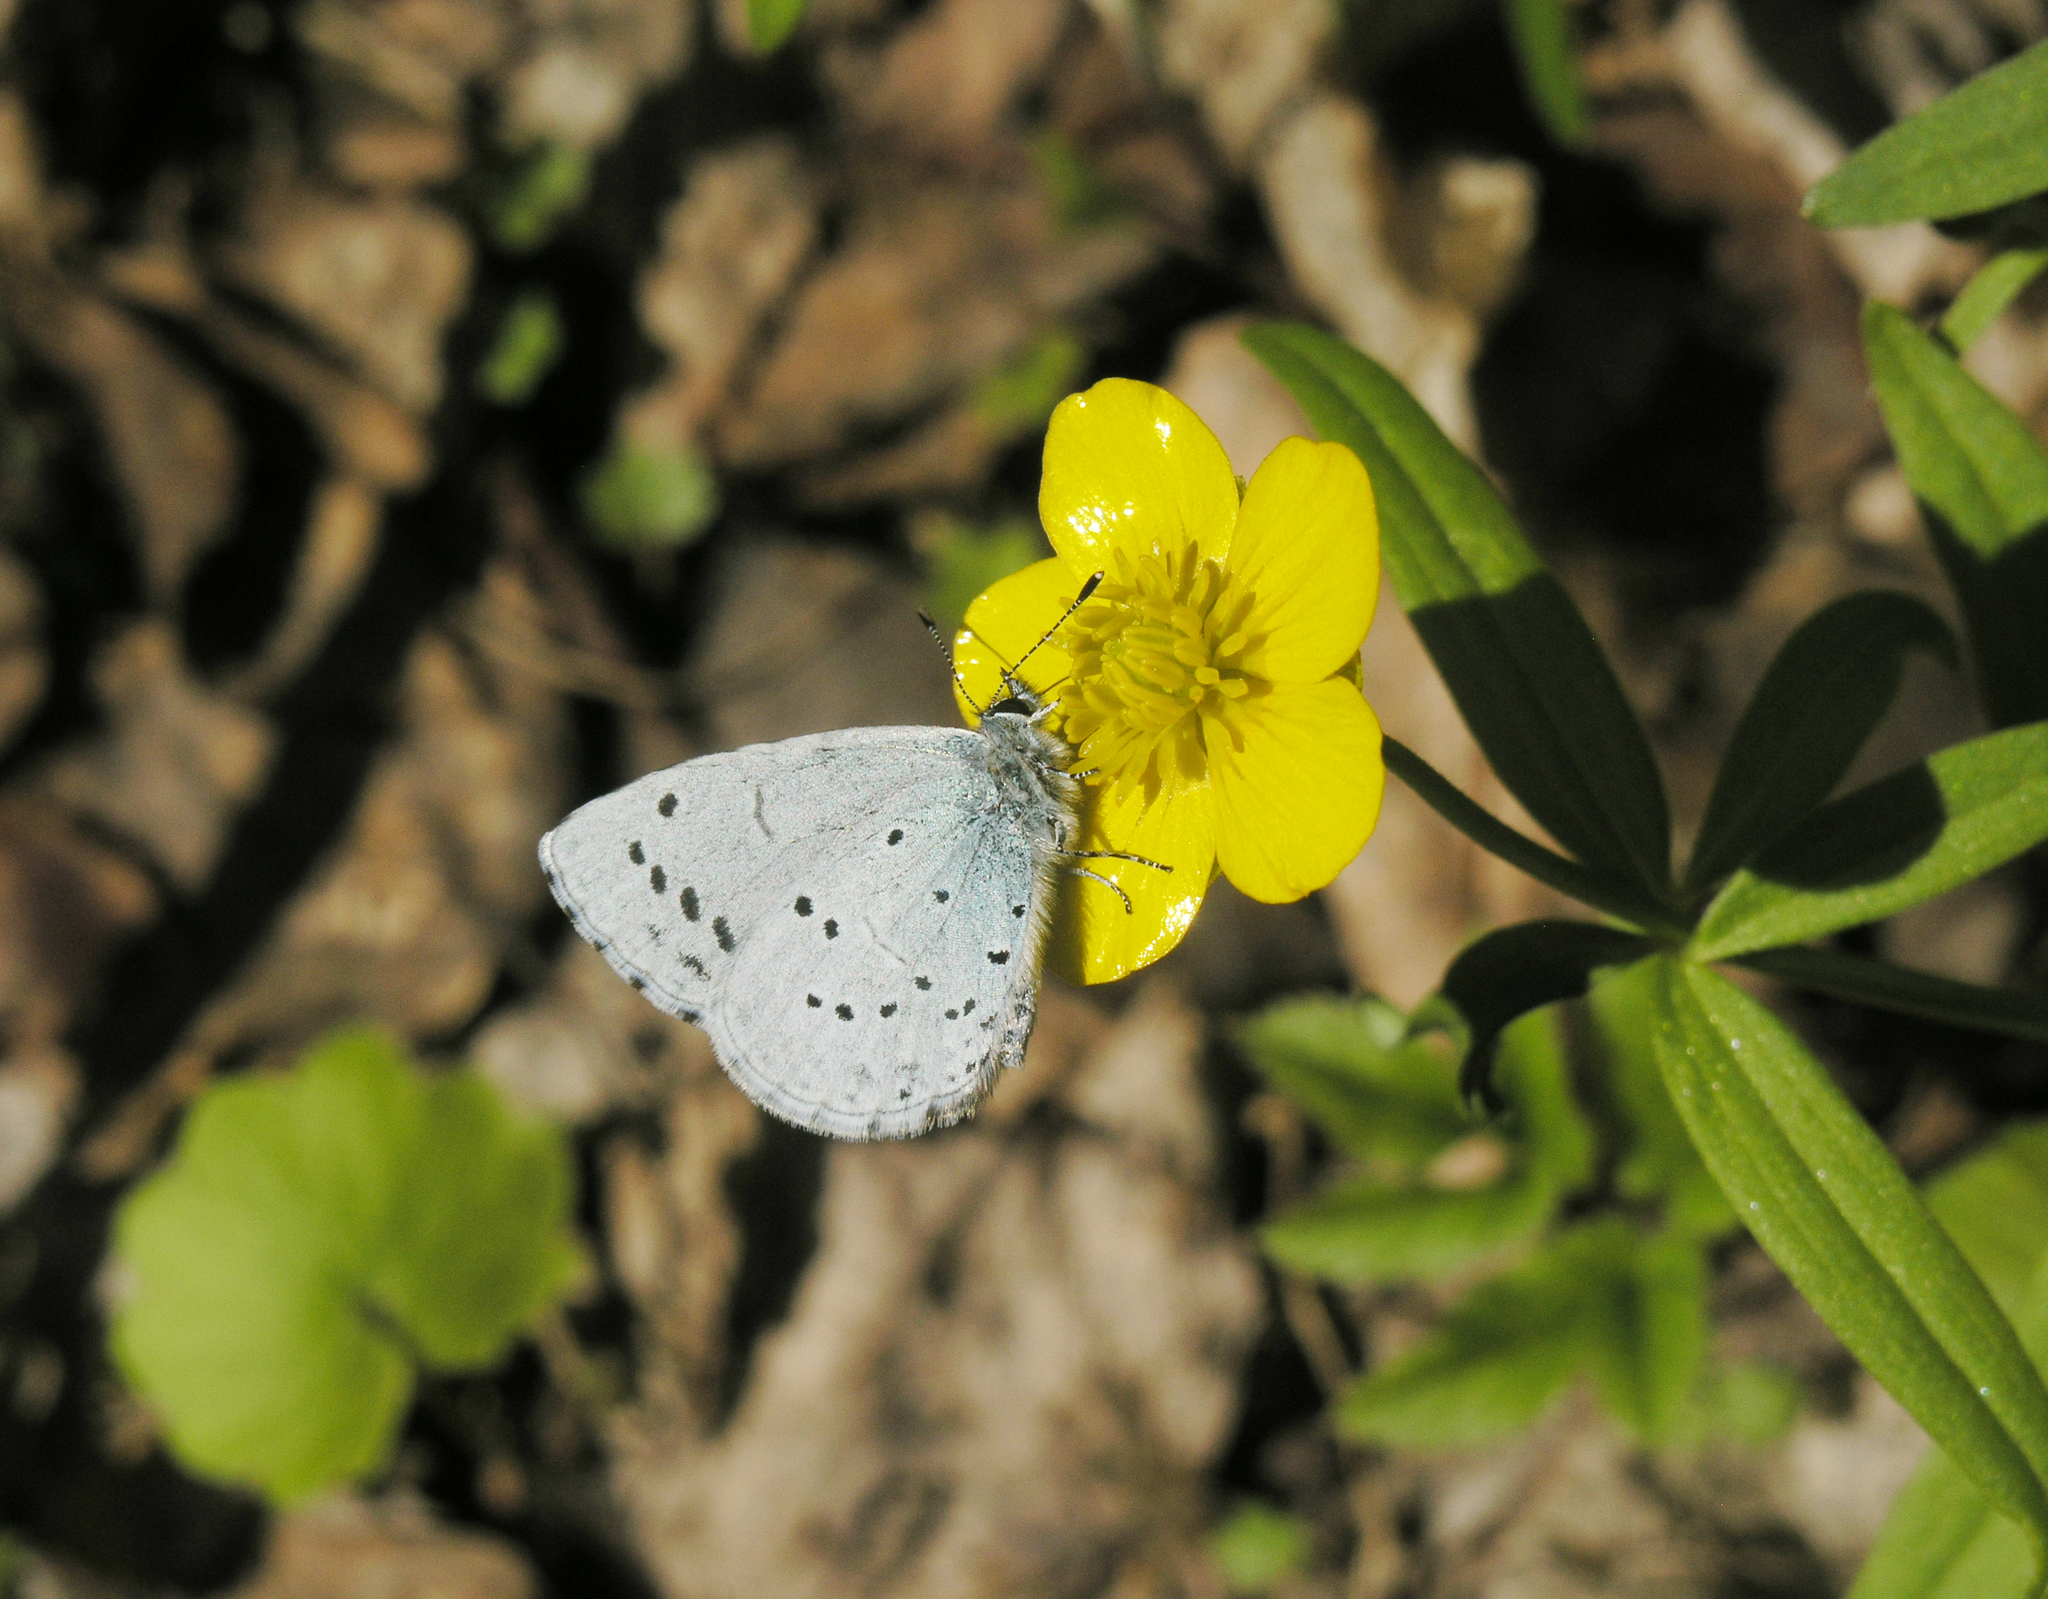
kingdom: Plantae
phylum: Tracheophyta
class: Magnoliopsida
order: Ranunculales
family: Ranunculaceae
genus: Ranunculus
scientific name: Ranunculus monophyllus
